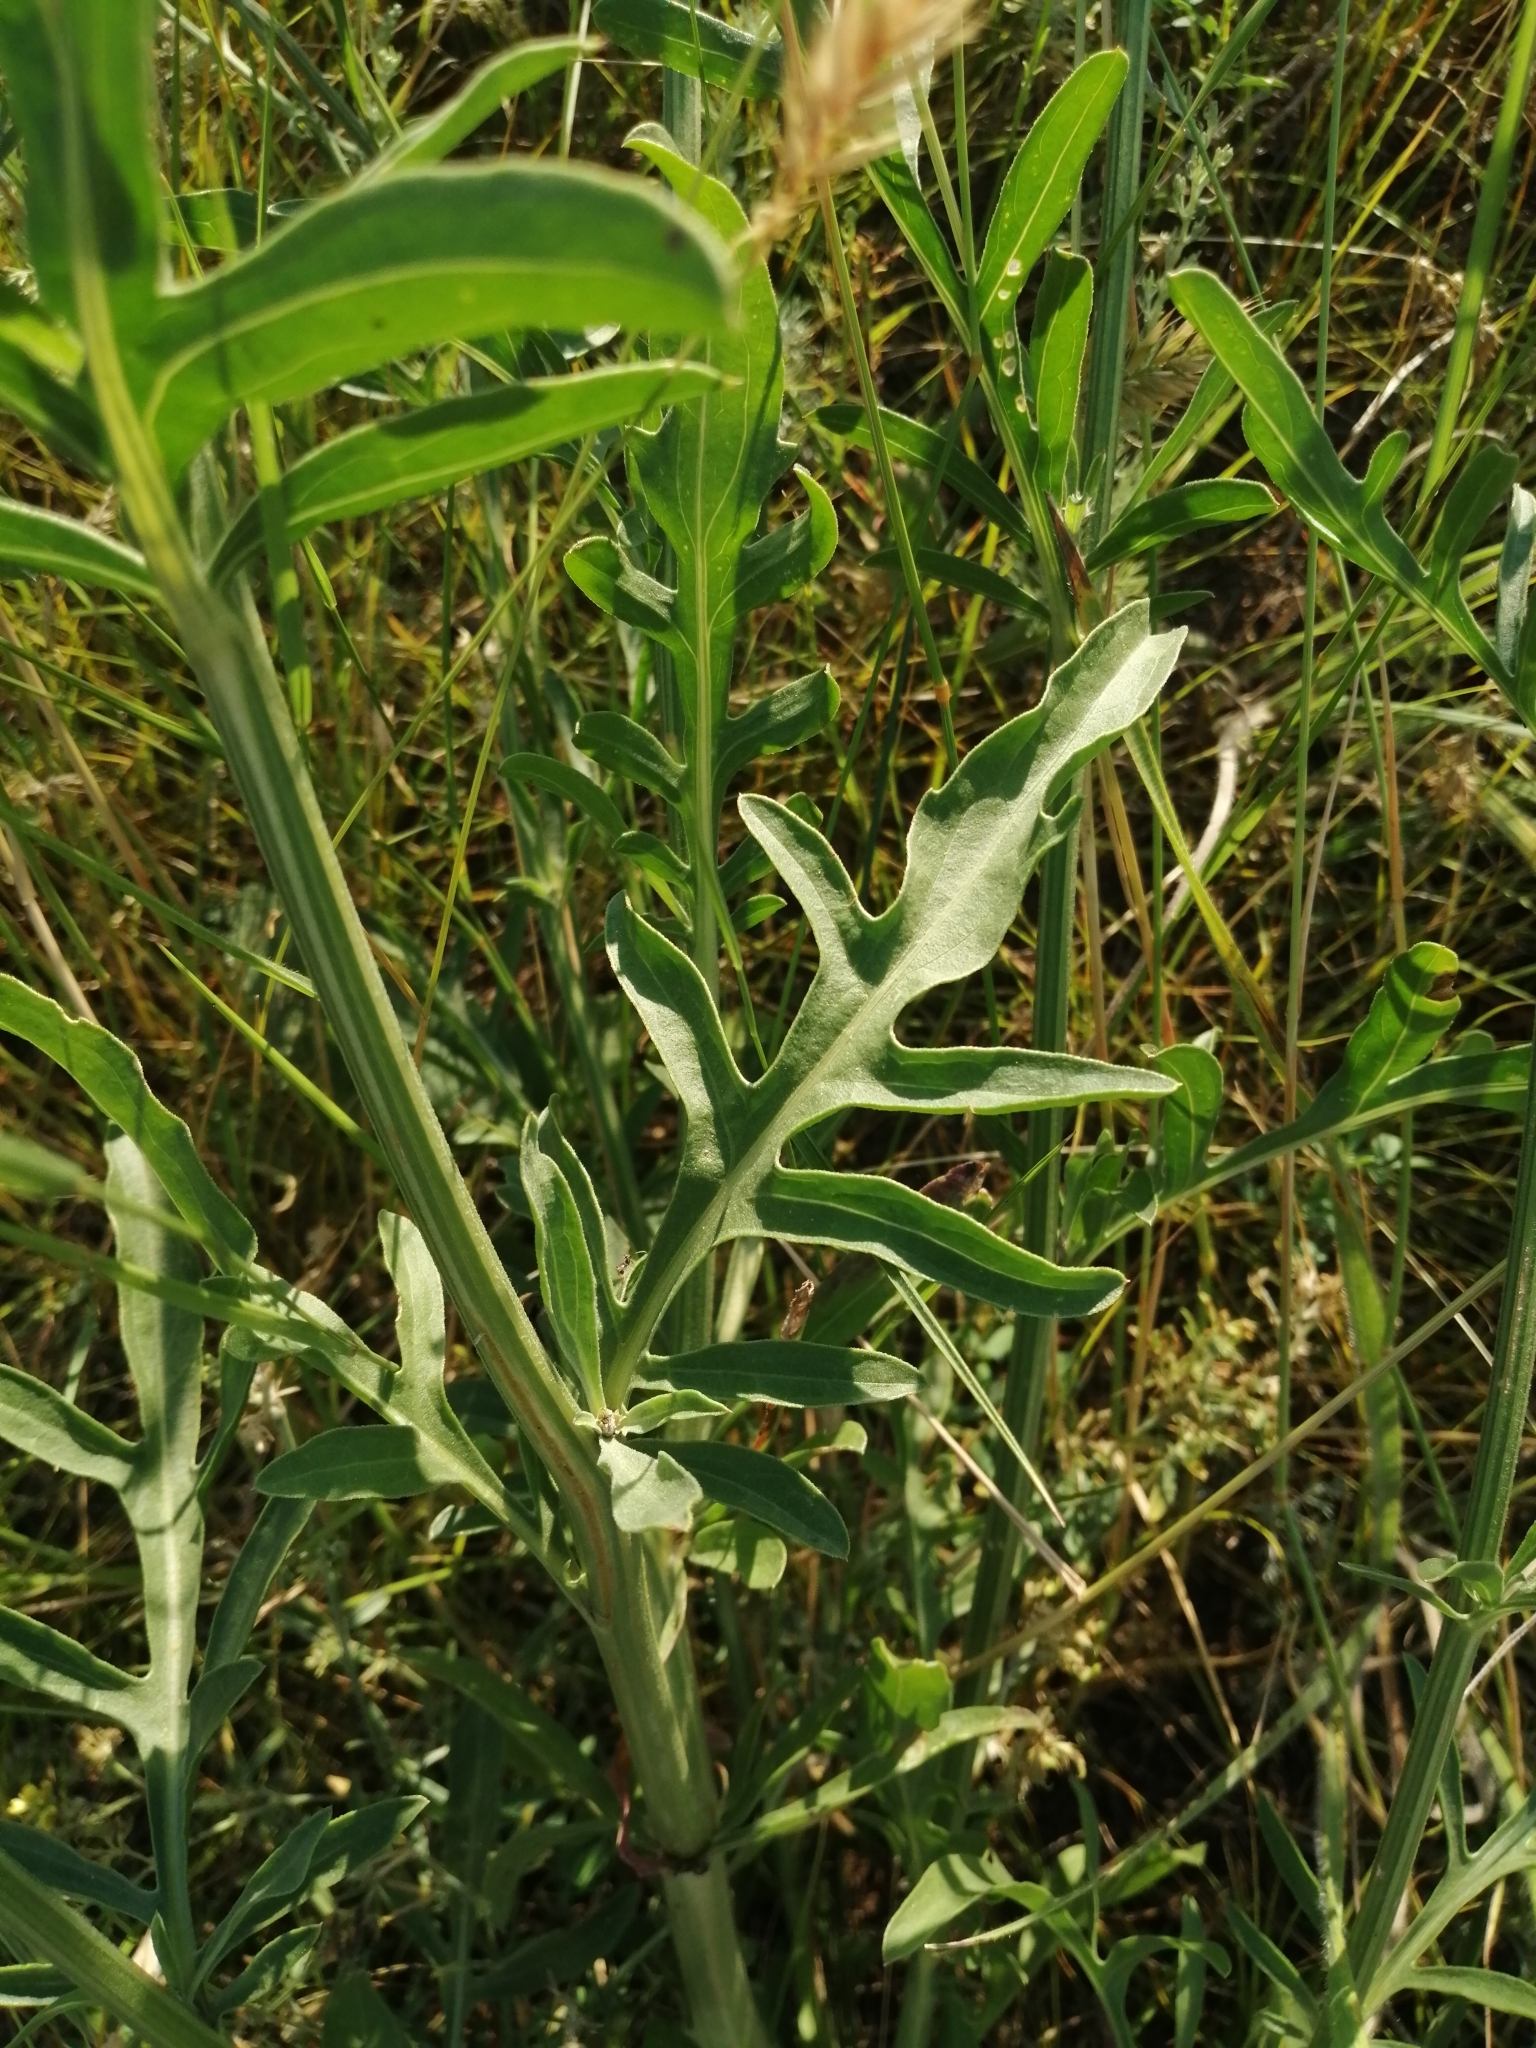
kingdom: Plantae
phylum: Tracheophyta
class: Magnoliopsida
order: Asterales
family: Asteraceae
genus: Centaurea
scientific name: Centaurea apiculata
